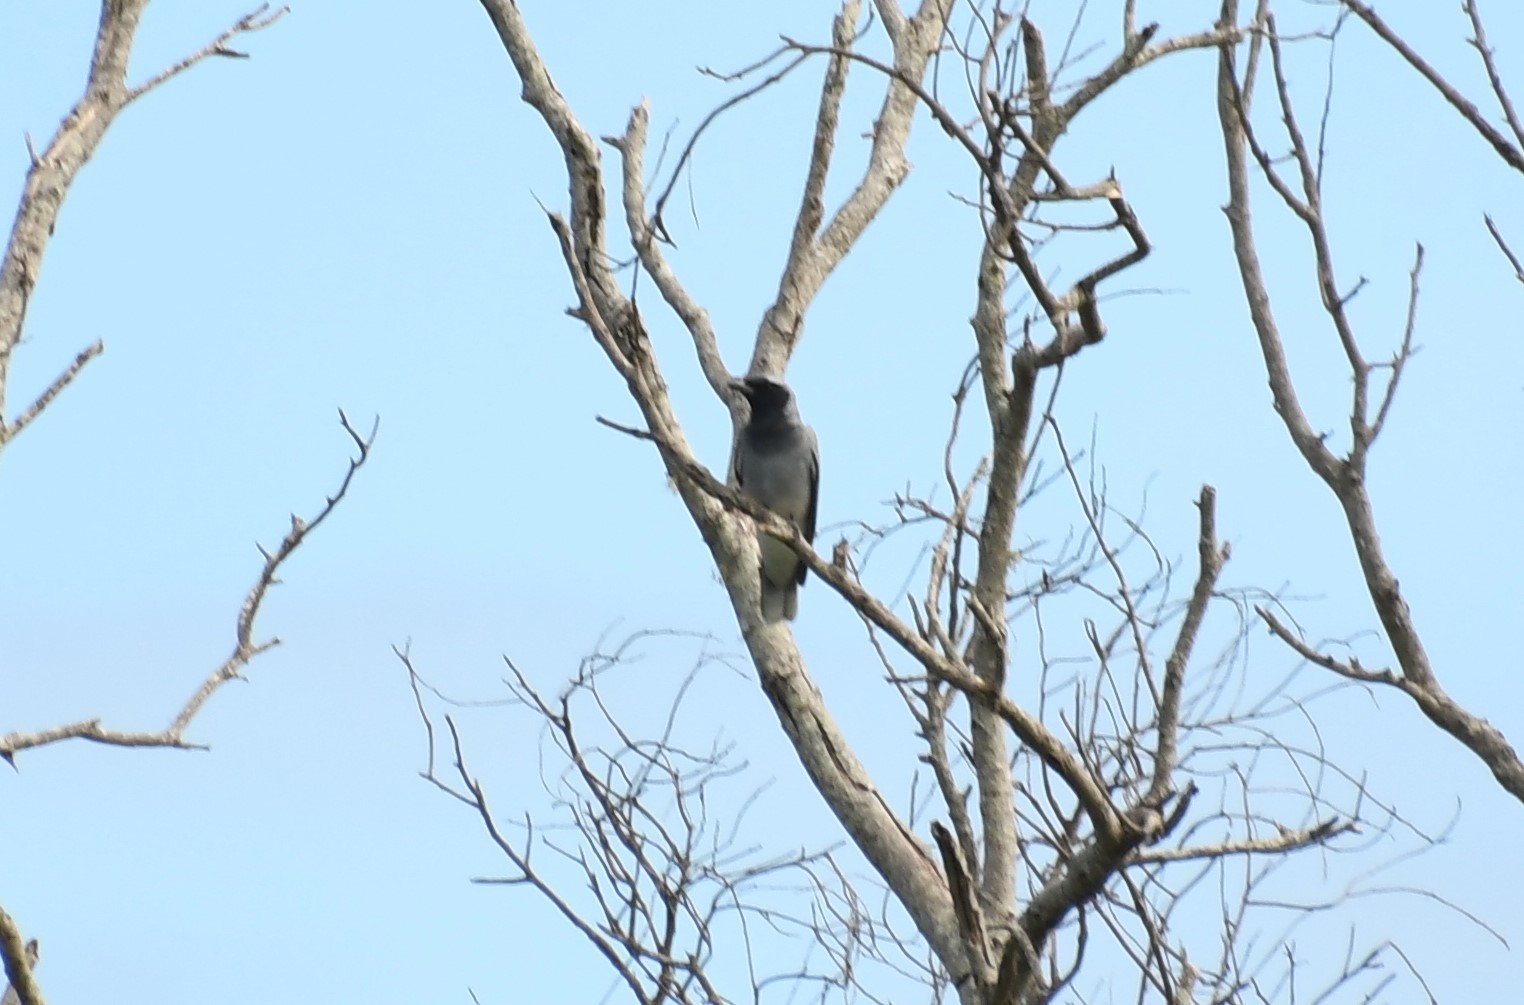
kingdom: Animalia
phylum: Chordata
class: Aves
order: Passeriformes
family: Campephagidae
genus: Coracina
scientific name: Coracina novaehollandiae
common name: Black-faced cuckooshrike
